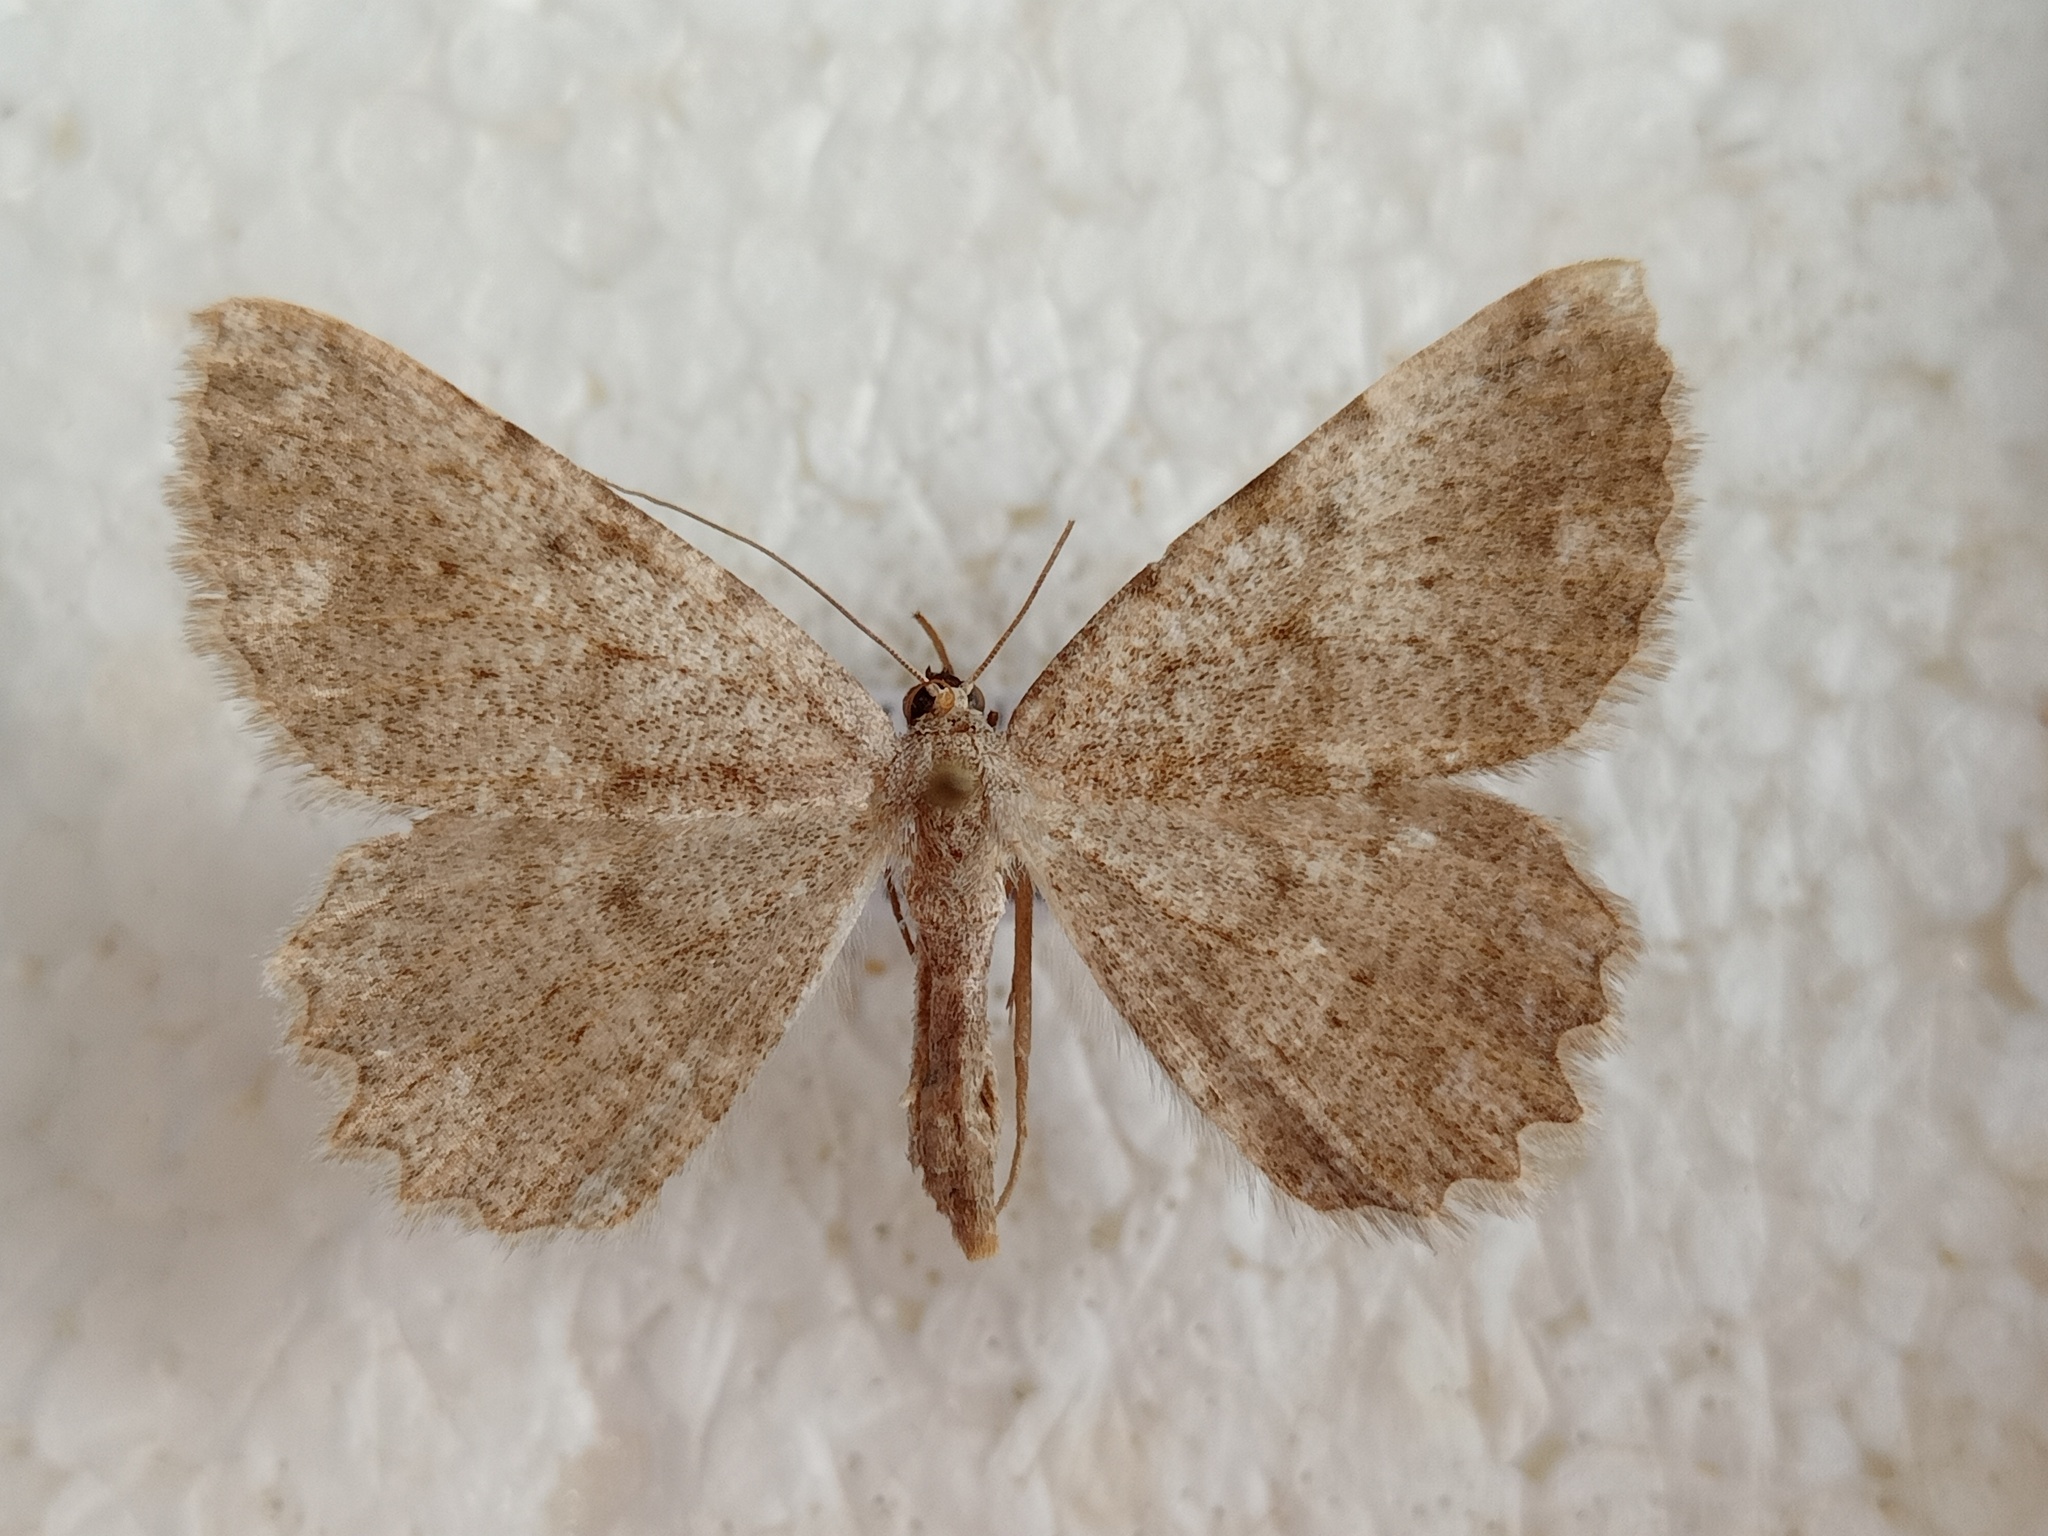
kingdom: Animalia
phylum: Arthropoda
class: Insecta
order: Lepidoptera
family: Geometridae
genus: Gnophos
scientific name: Gnophos sartata
